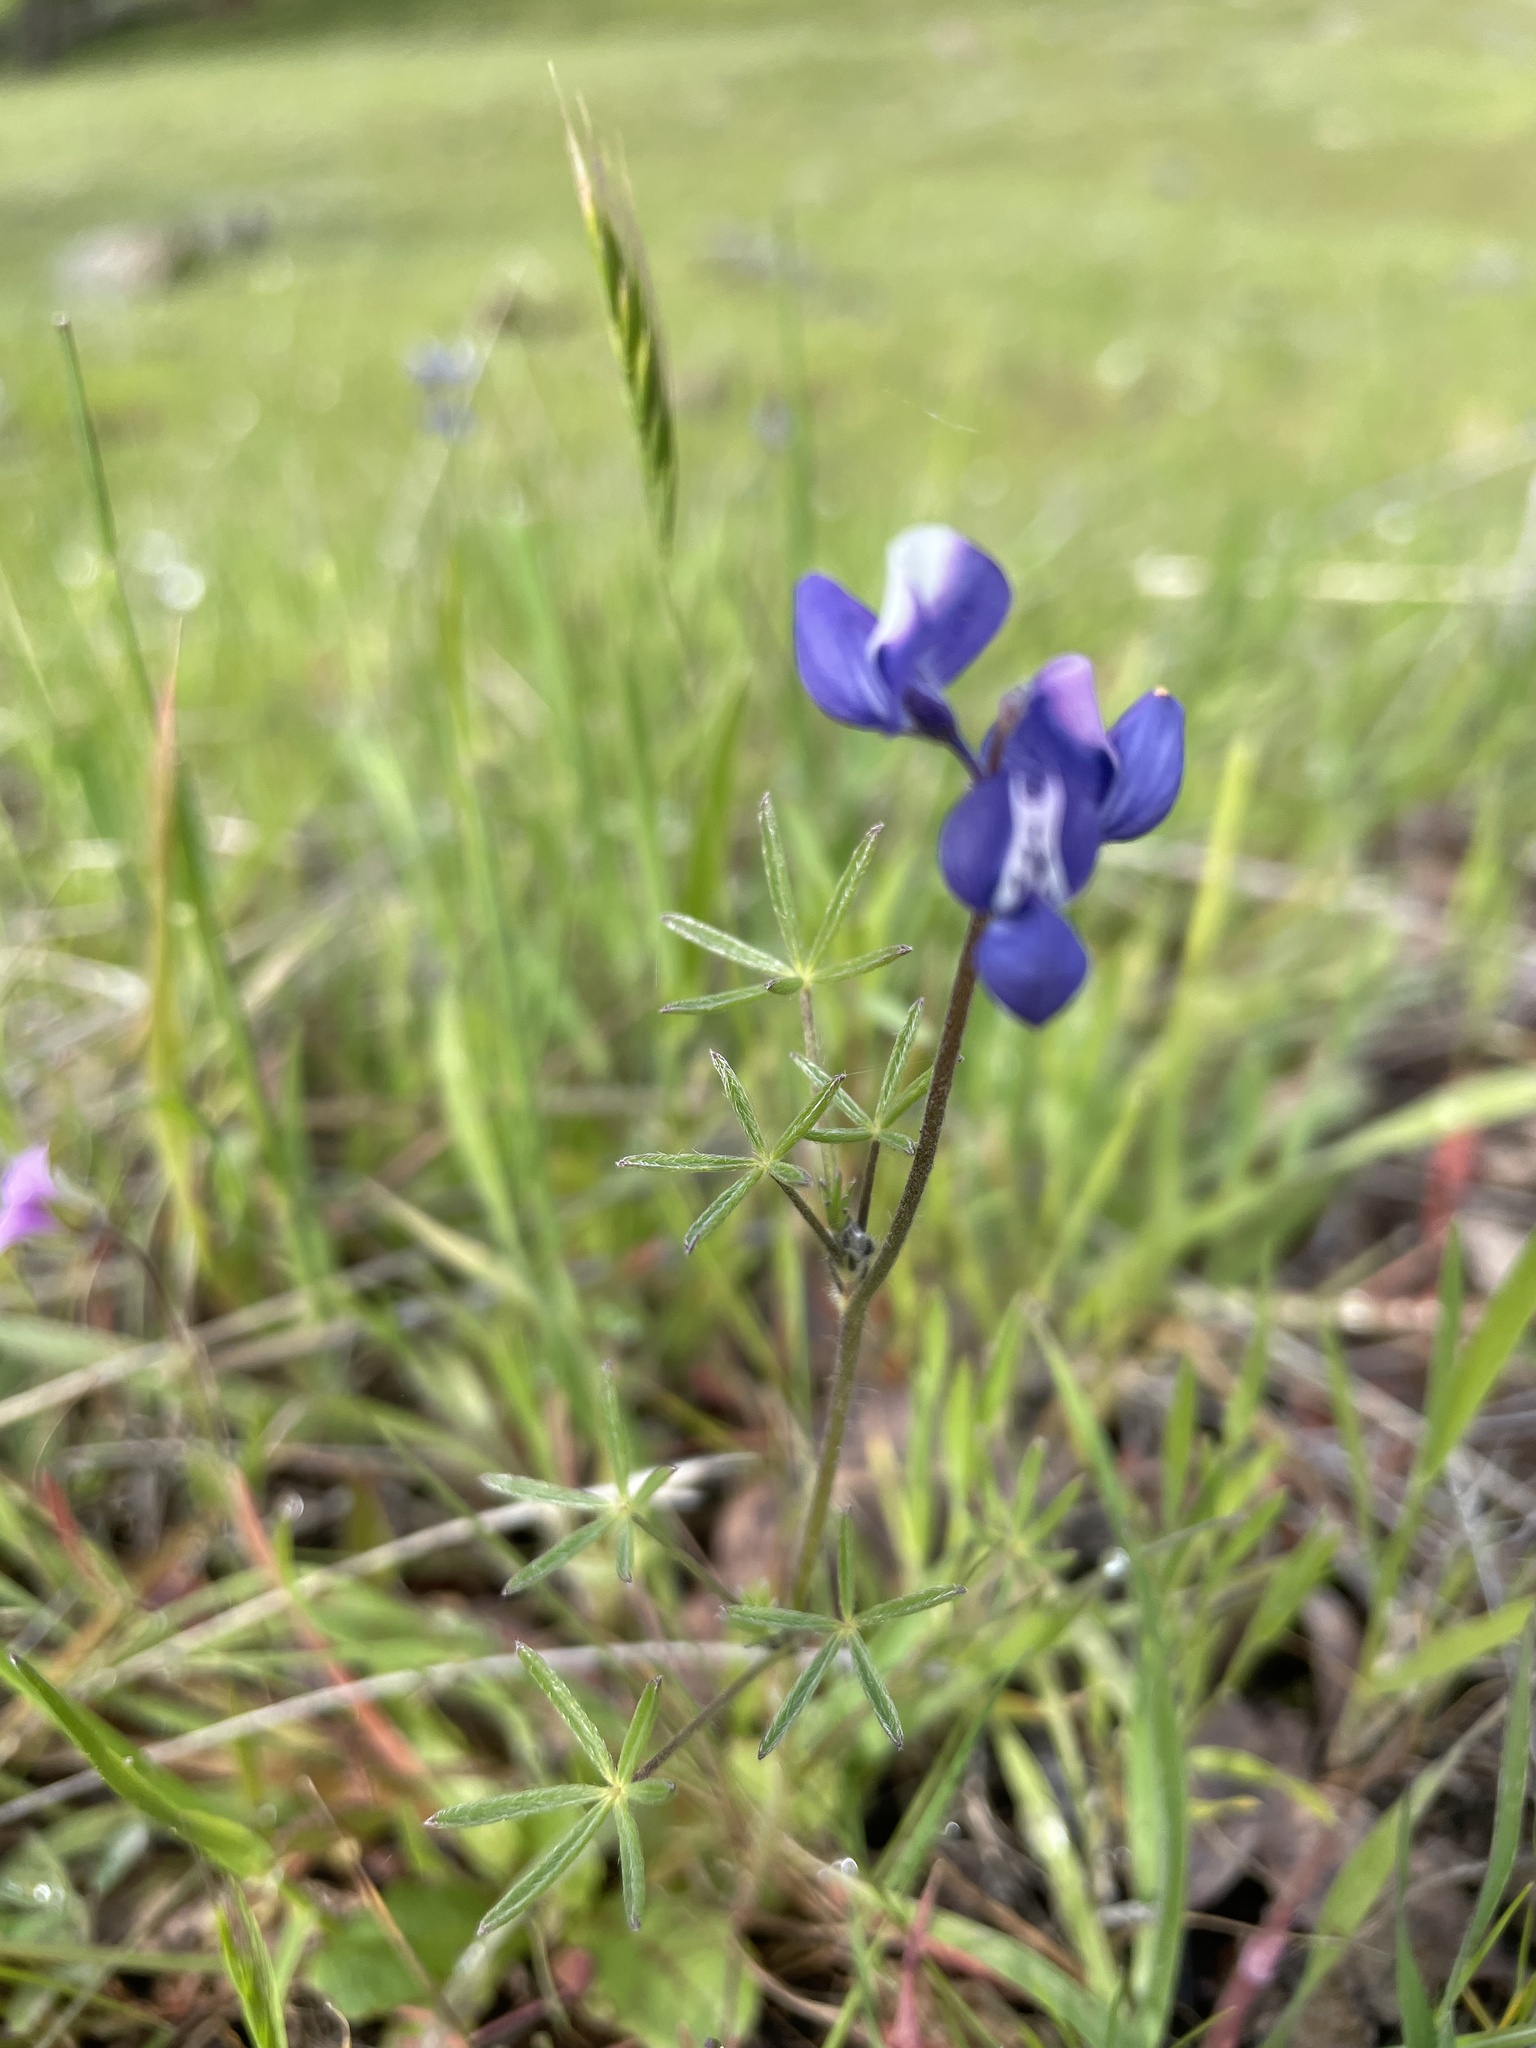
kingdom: Plantae
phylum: Tracheophyta
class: Magnoliopsida
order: Fabales
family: Fabaceae
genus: Lupinus
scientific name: Lupinus bicolor
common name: Miniature lupine
